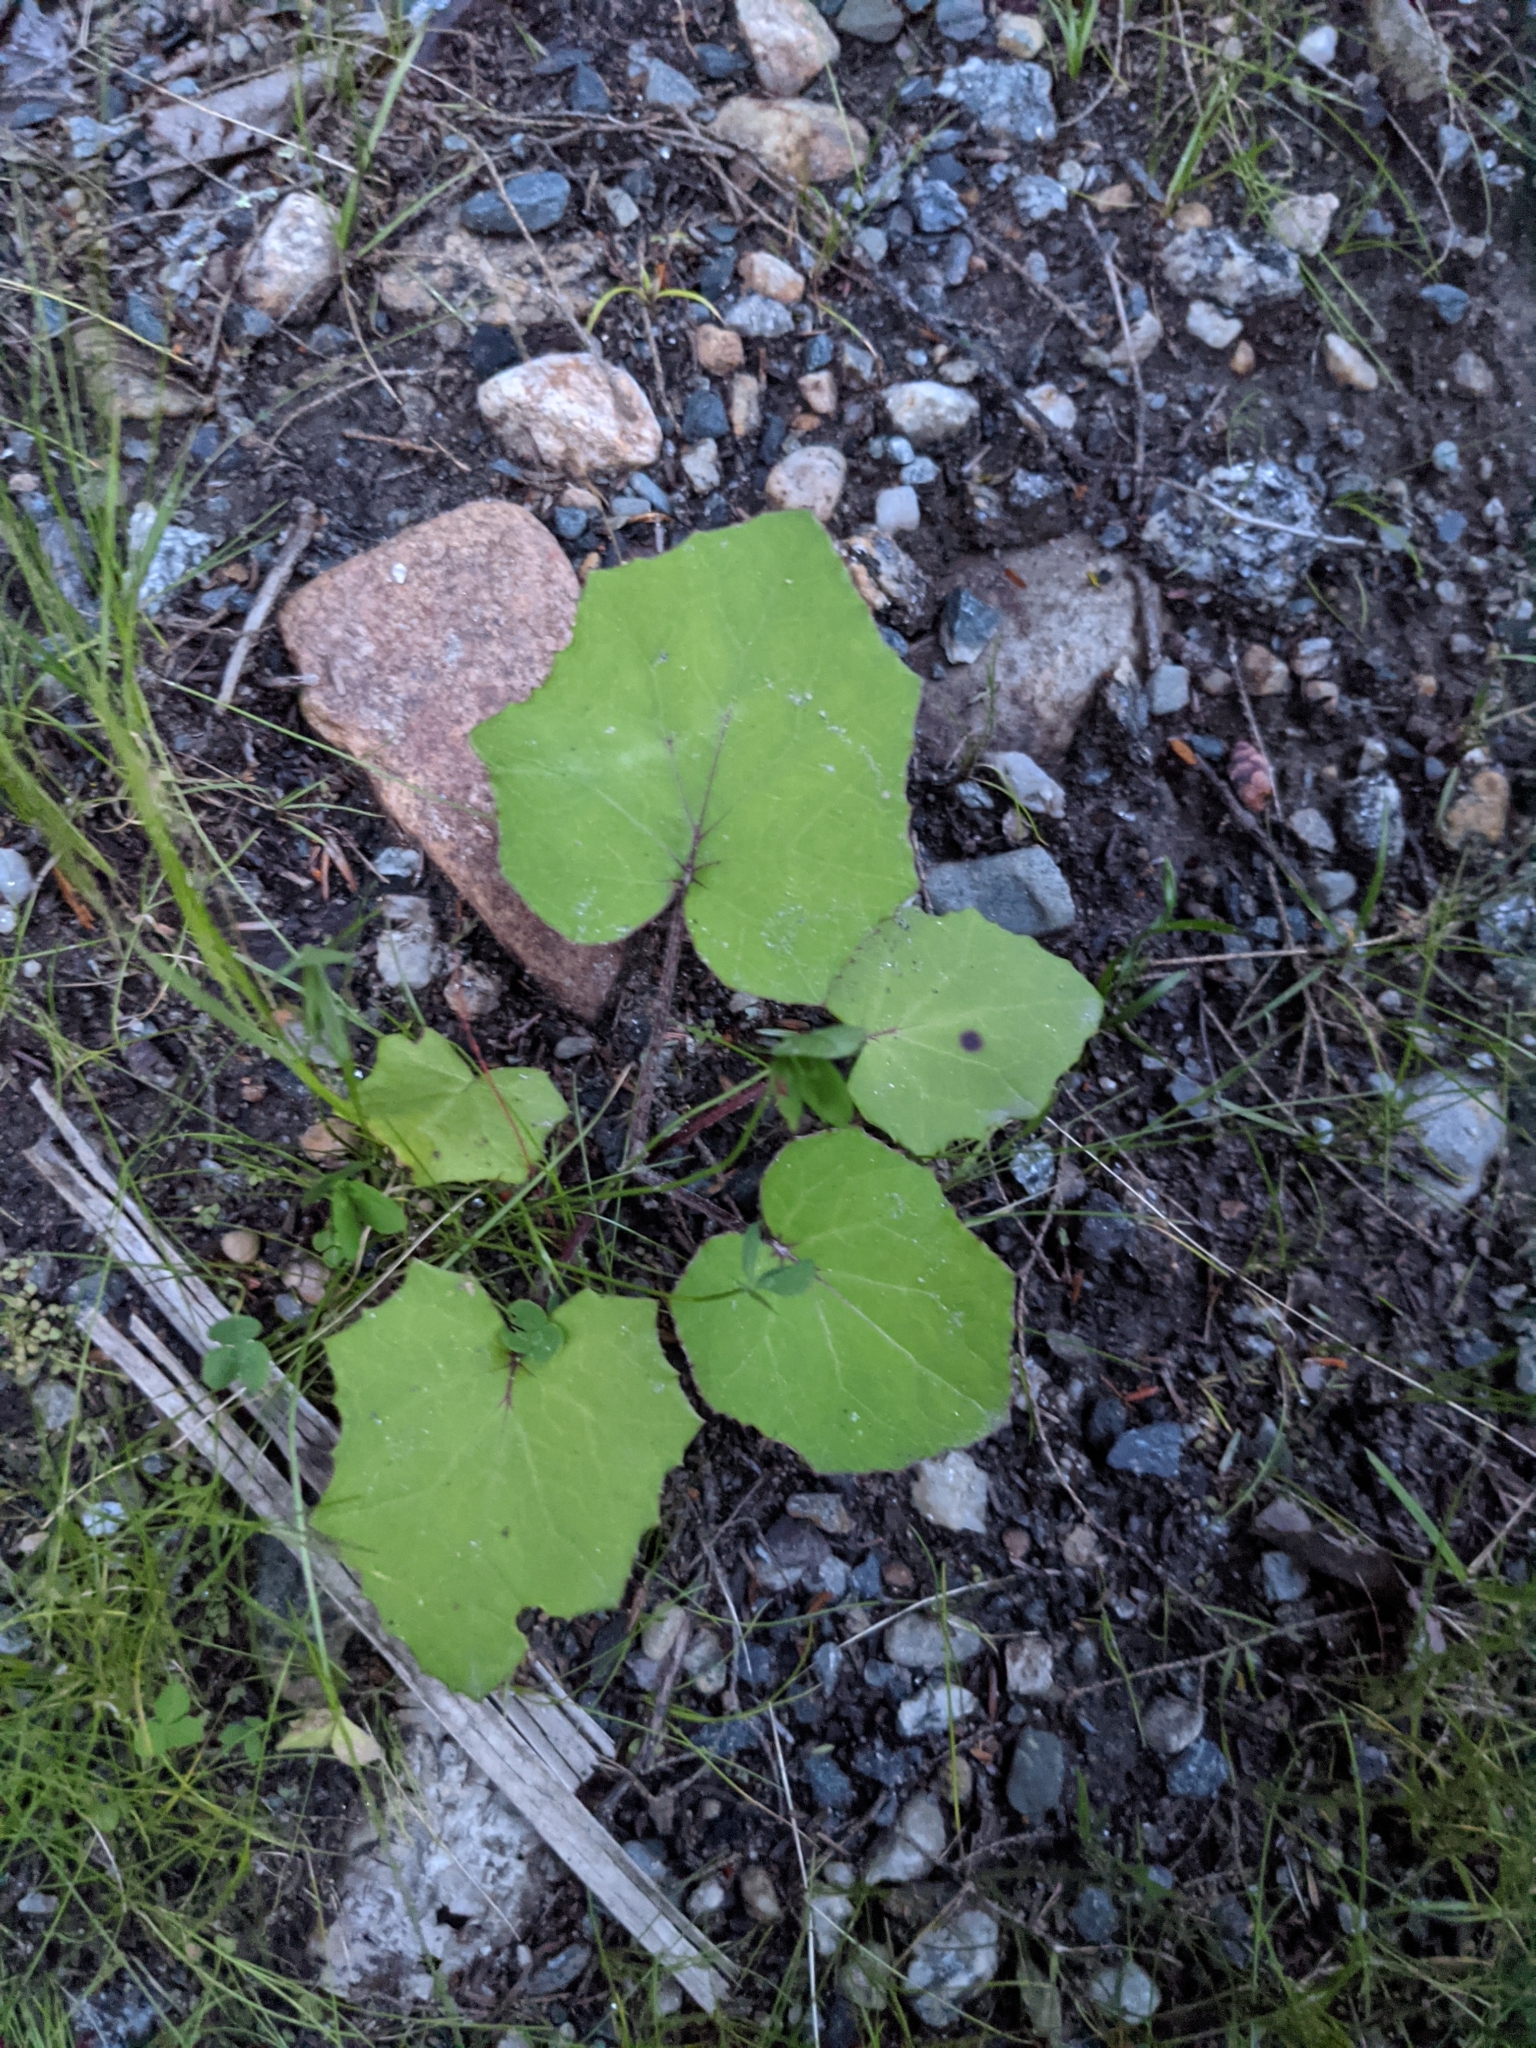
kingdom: Plantae
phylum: Tracheophyta
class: Magnoliopsida
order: Asterales
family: Asteraceae
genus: Tussilago
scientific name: Tussilago farfara
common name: Coltsfoot
